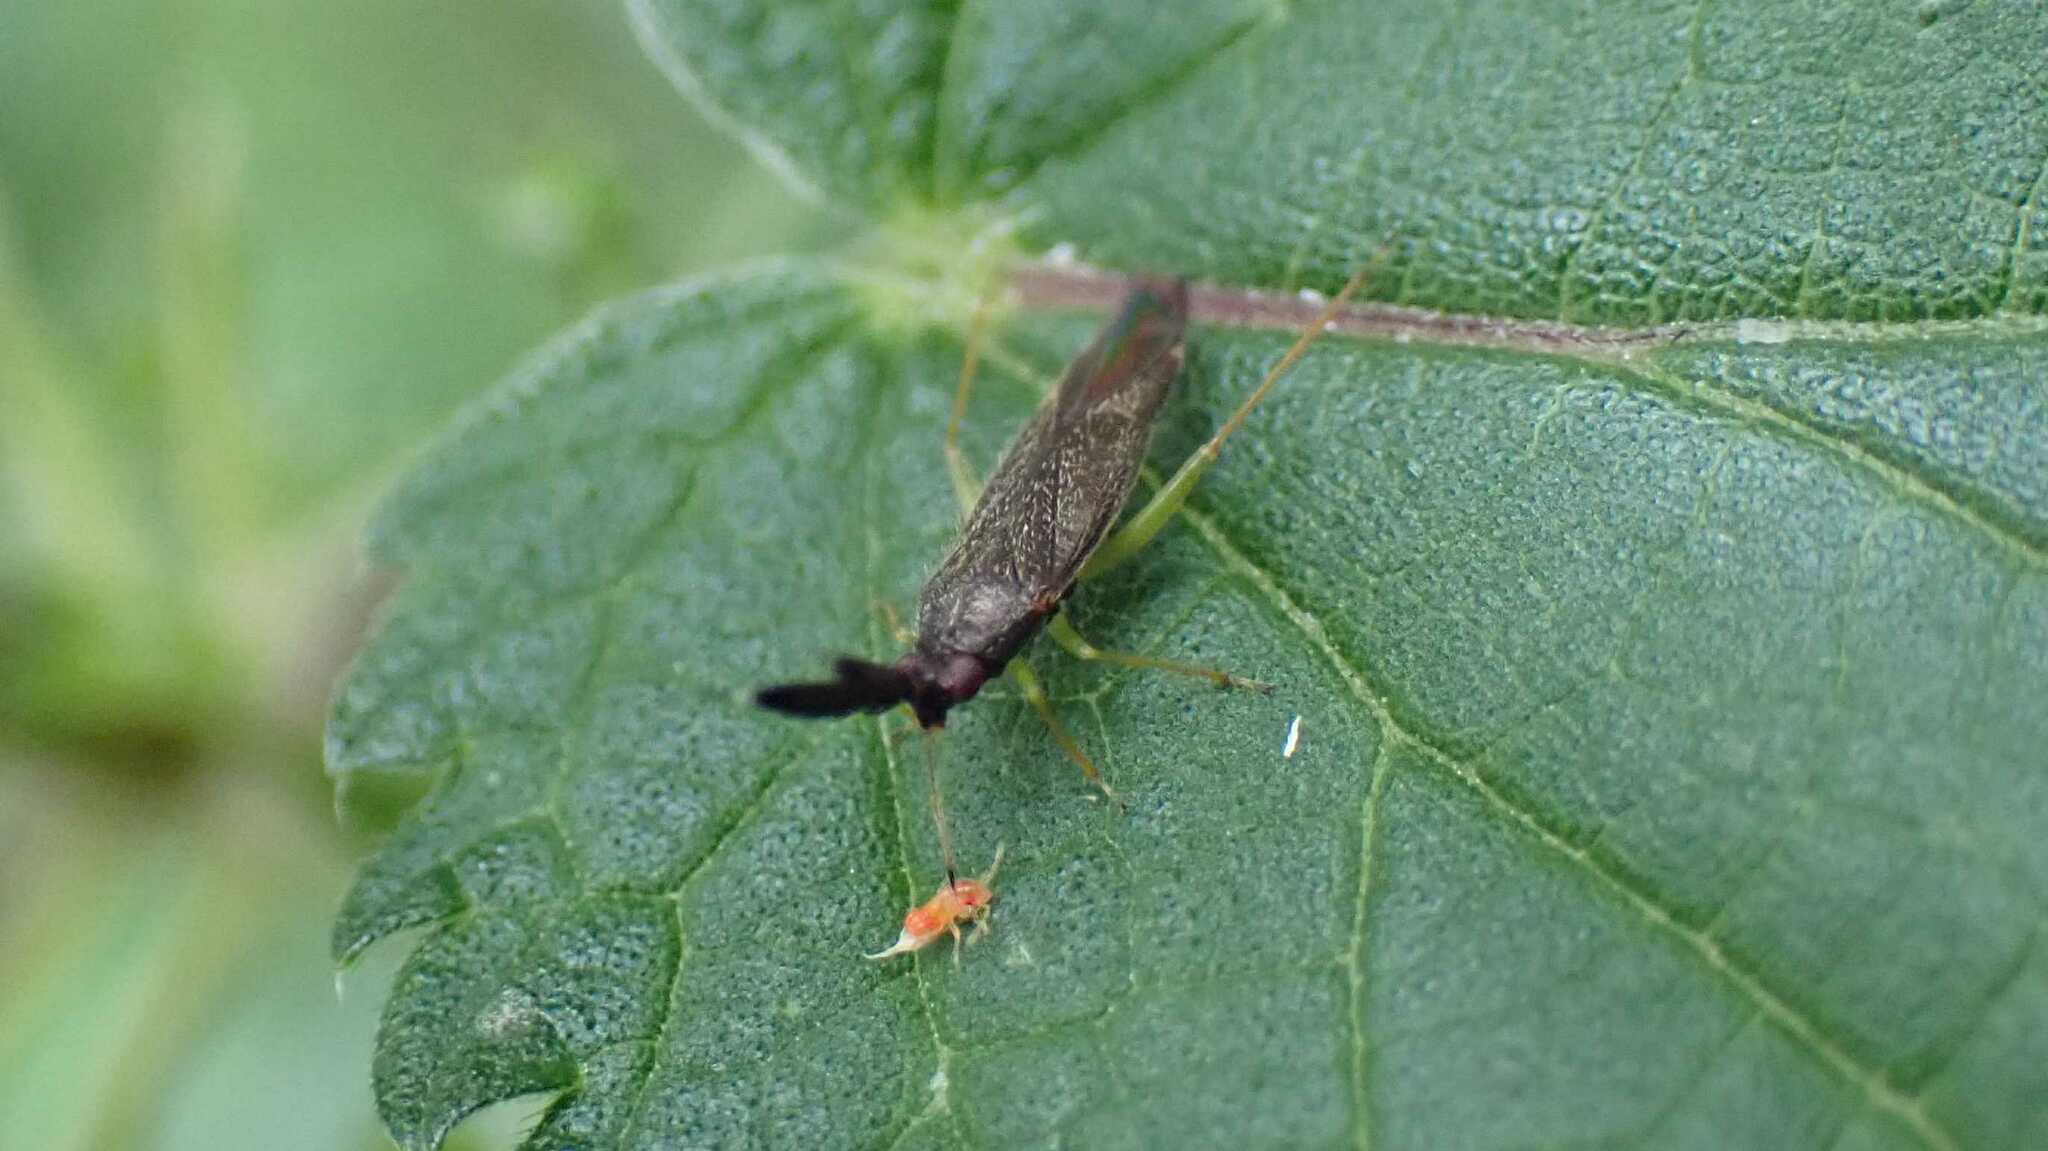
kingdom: Animalia
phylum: Arthropoda
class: Insecta
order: Hemiptera
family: Miridae
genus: Heterotoma
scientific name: Heterotoma planicornis
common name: Plant bug
